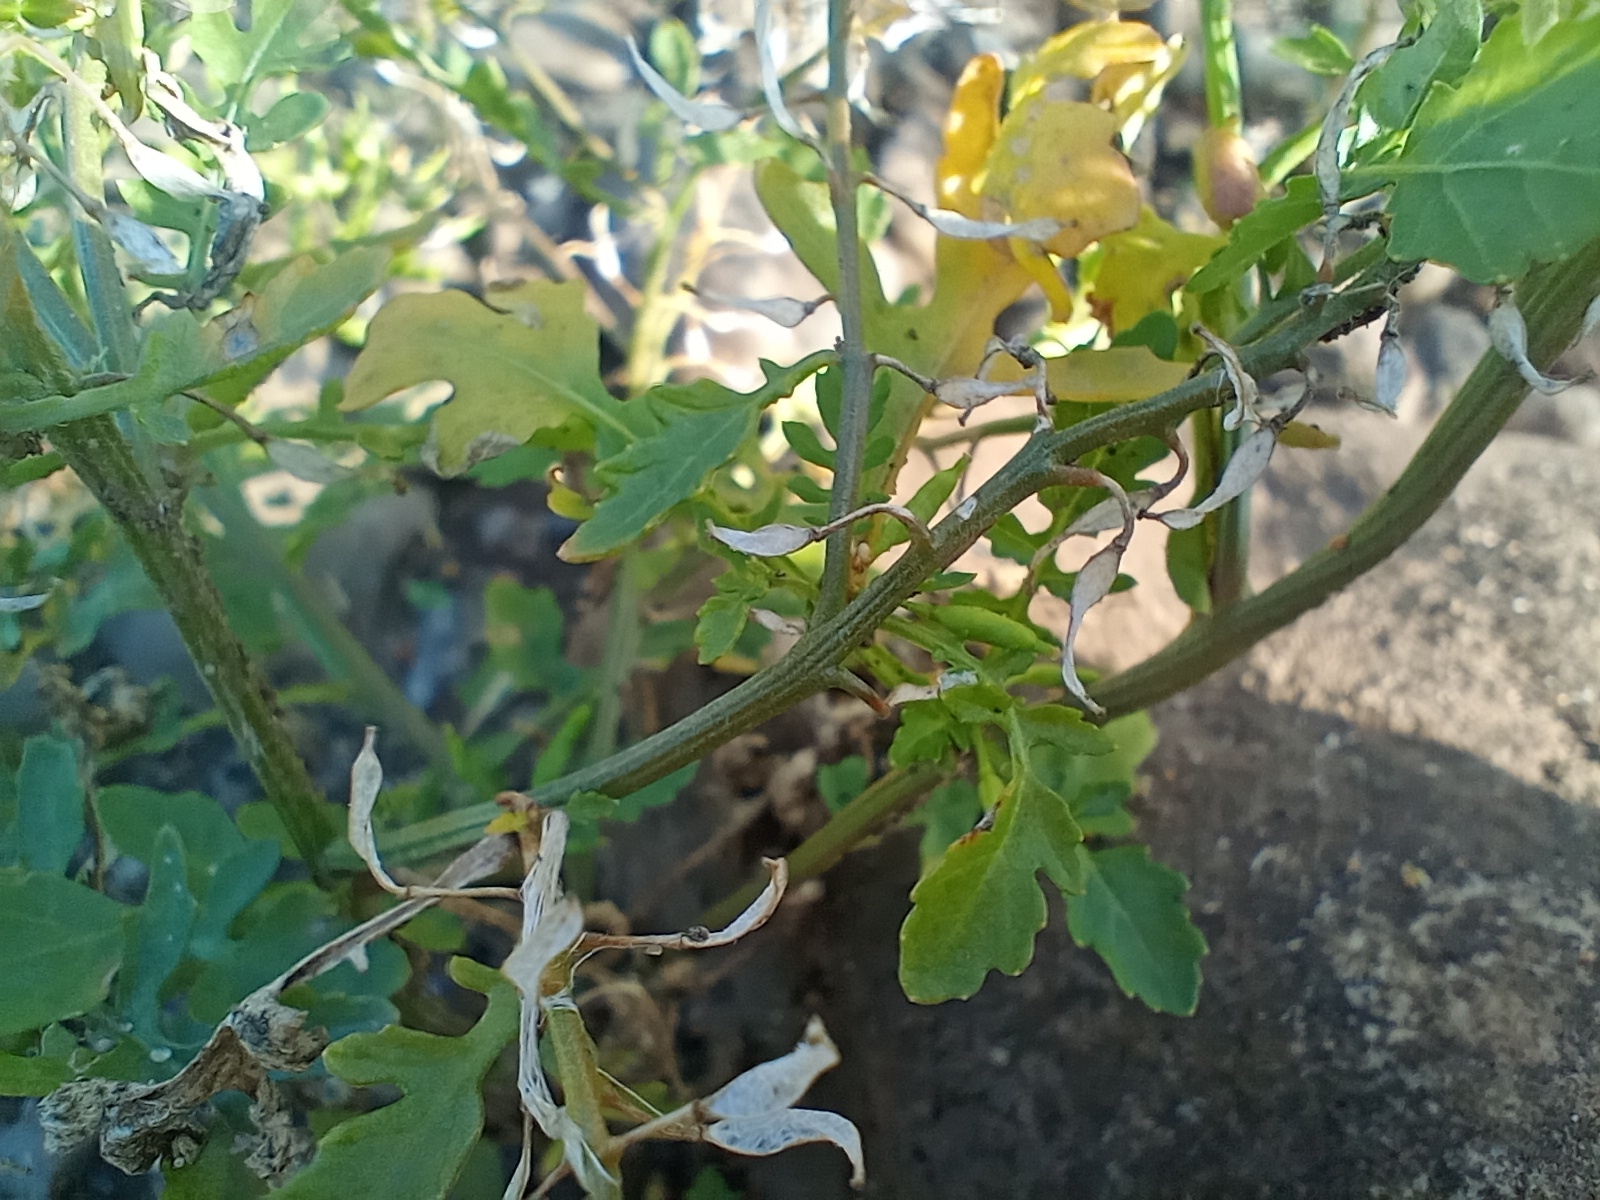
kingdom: Plantae
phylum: Tracheophyta
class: Magnoliopsida
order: Brassicales
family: Brassicaceae
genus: Rorippa
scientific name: Rorippa palustris
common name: Marsh yellow-cress
